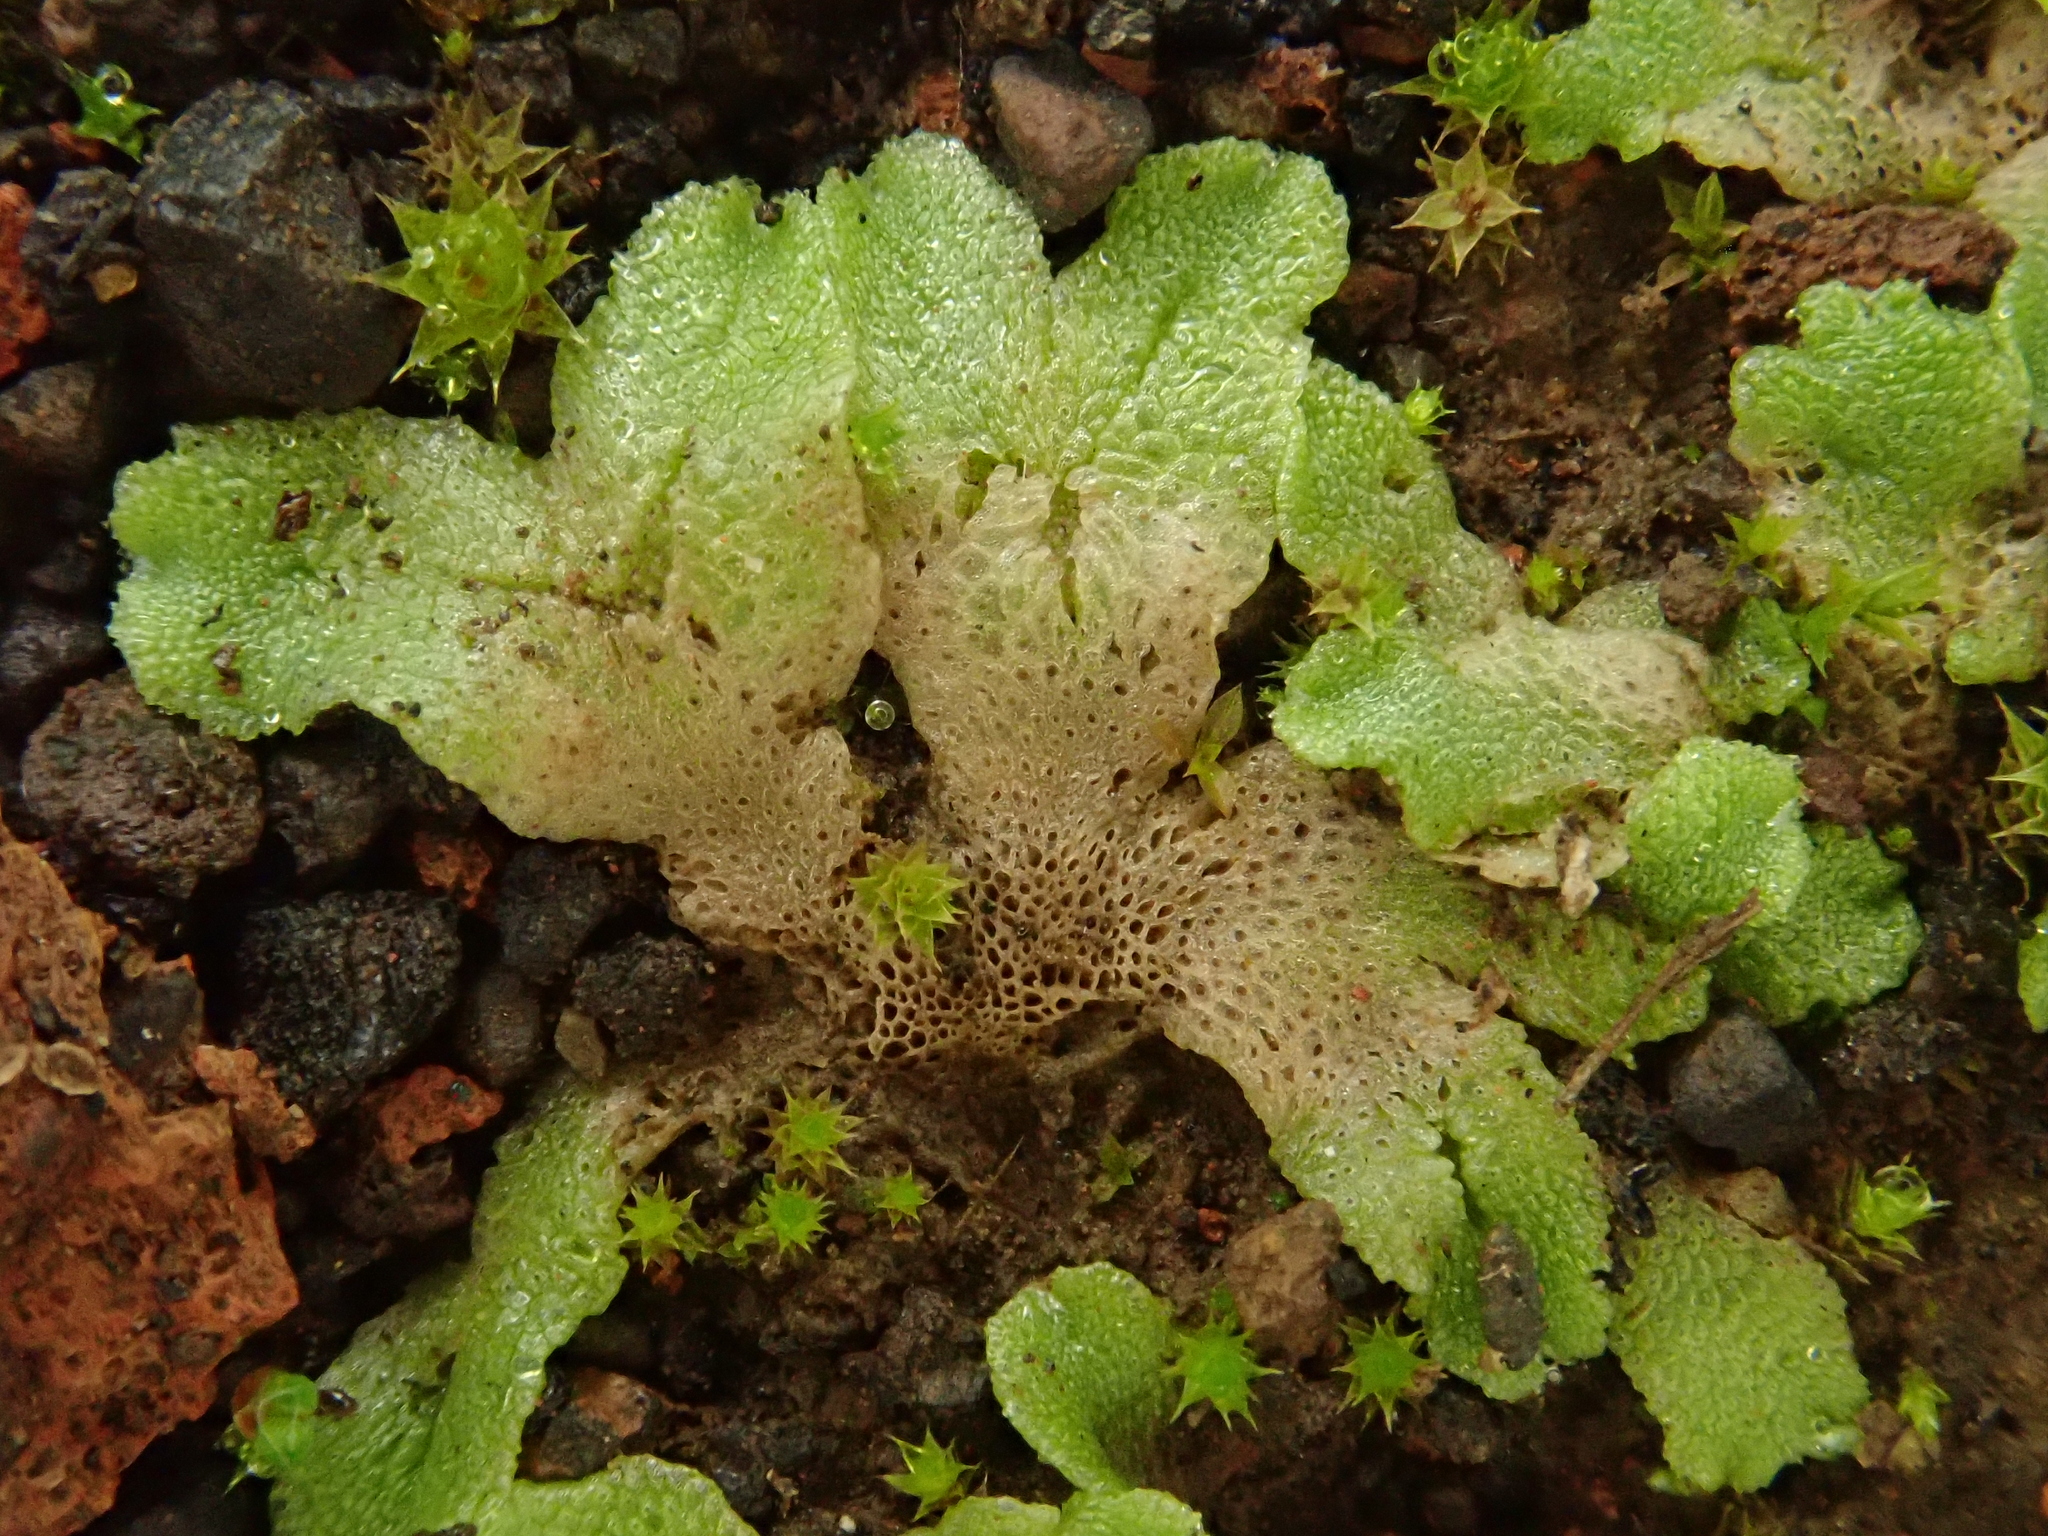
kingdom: Plantae
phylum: Marchantiophyta
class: Marchantiopsida
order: Marchantiales
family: Corsiniaceae
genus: Corsinia
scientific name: Corsinia coriandrina
